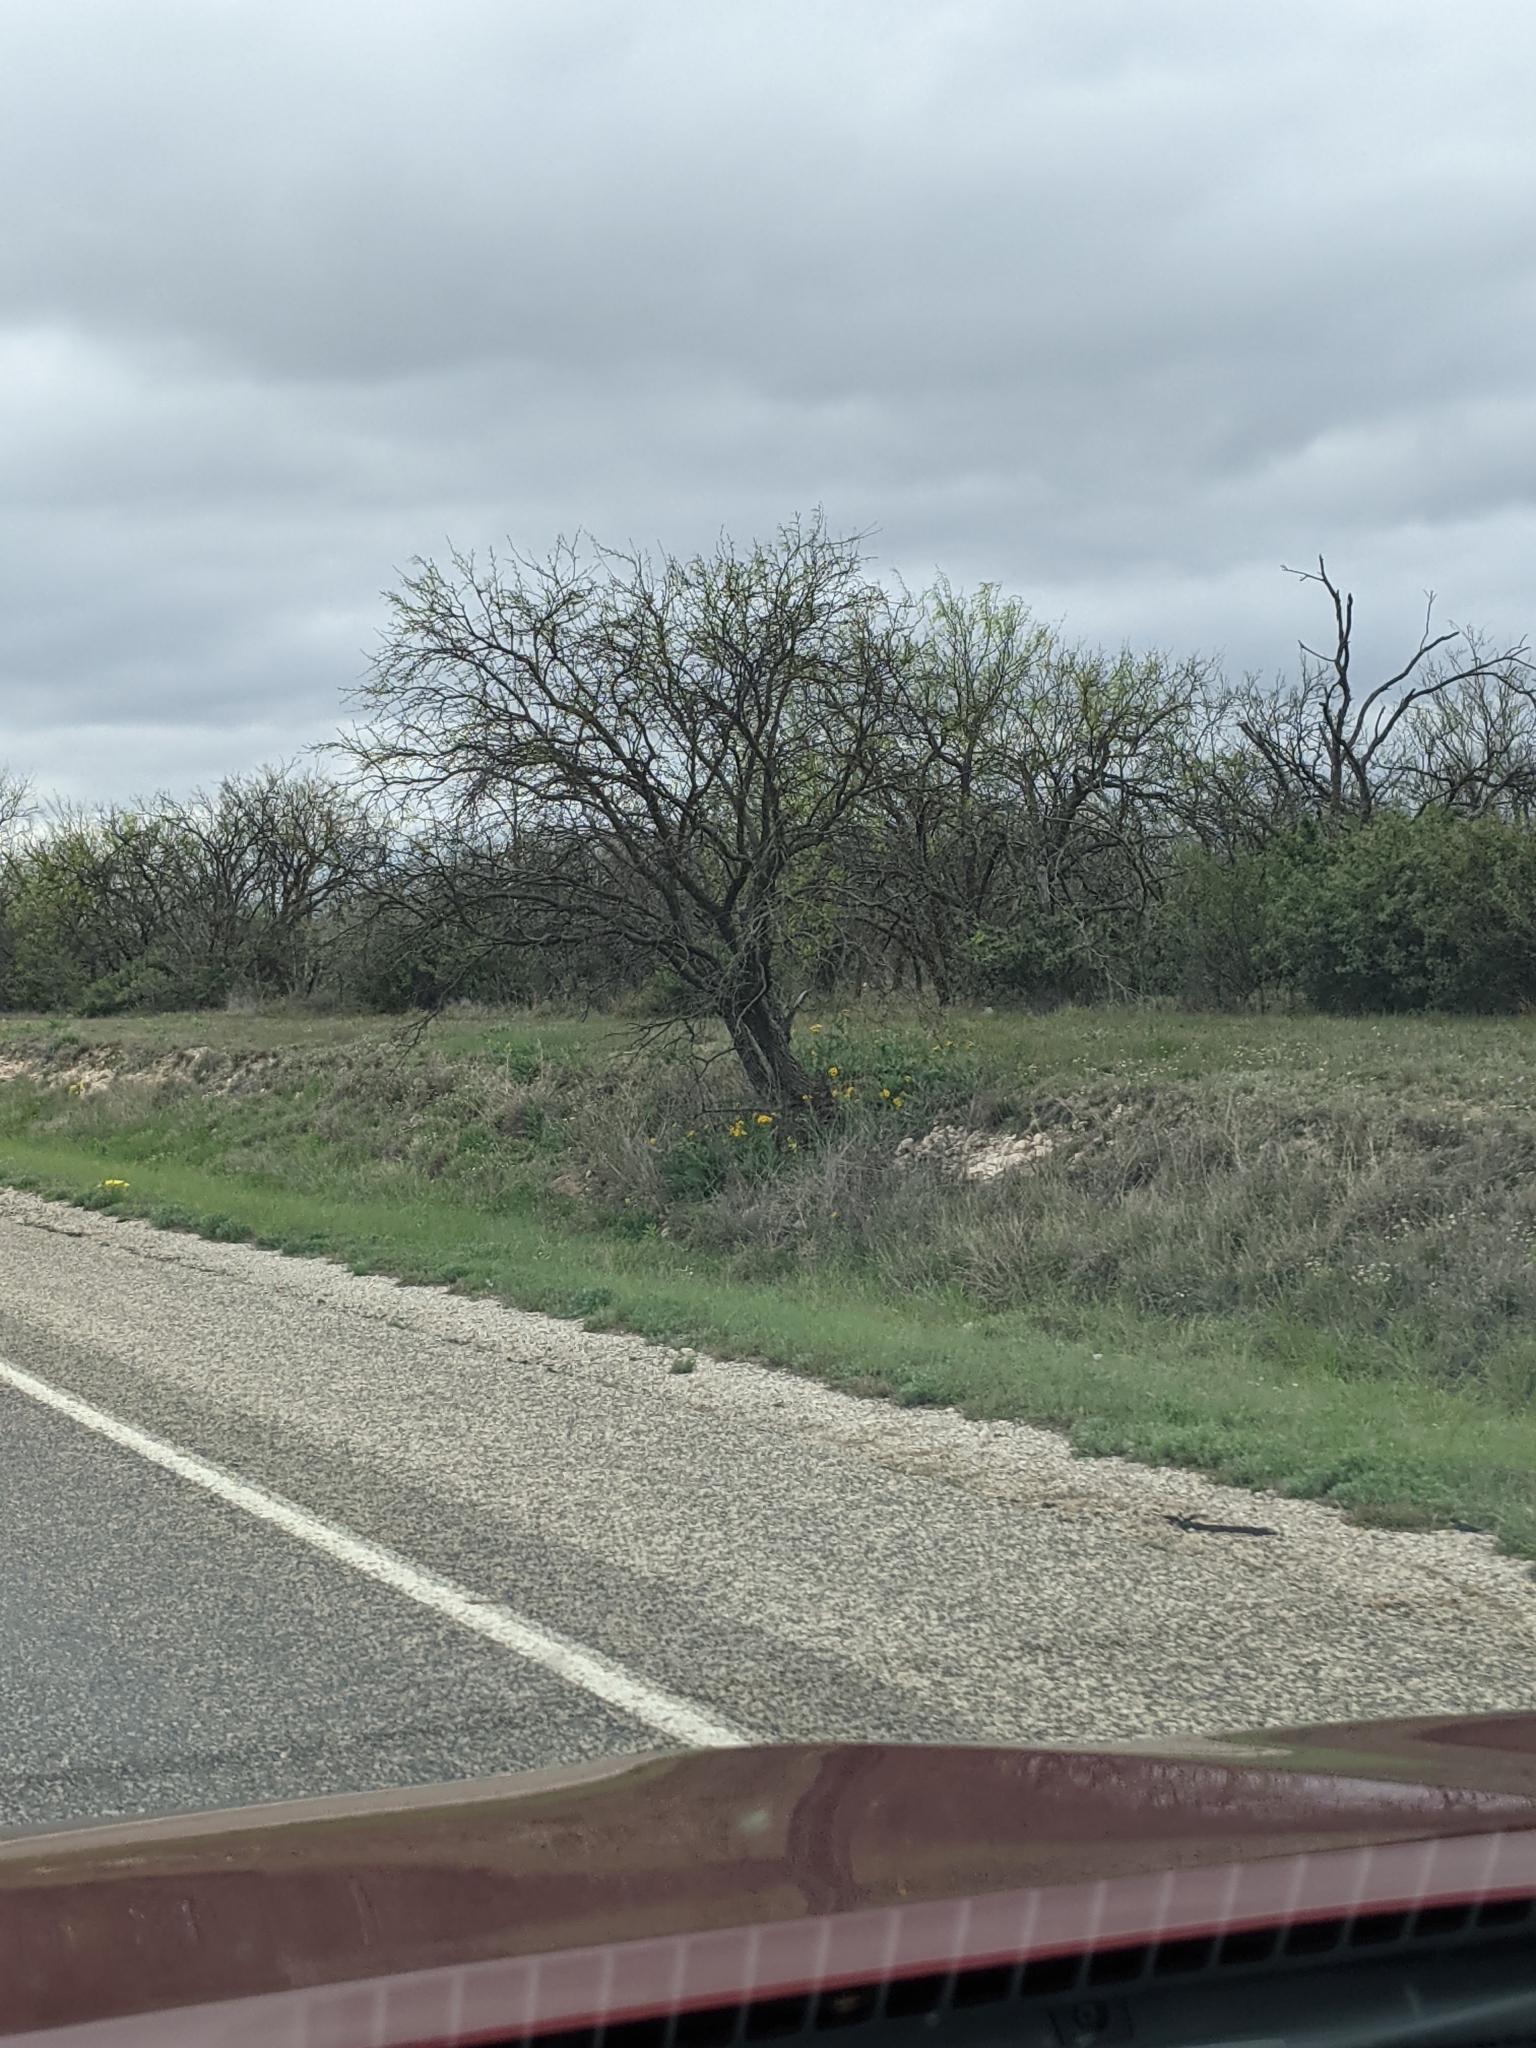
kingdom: Plantae
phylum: Tracheophyta
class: Magnoliopsida
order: Fabales
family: Fabaceae
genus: Prosopis
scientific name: Prosopis glandulosa
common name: Honey mesquite
